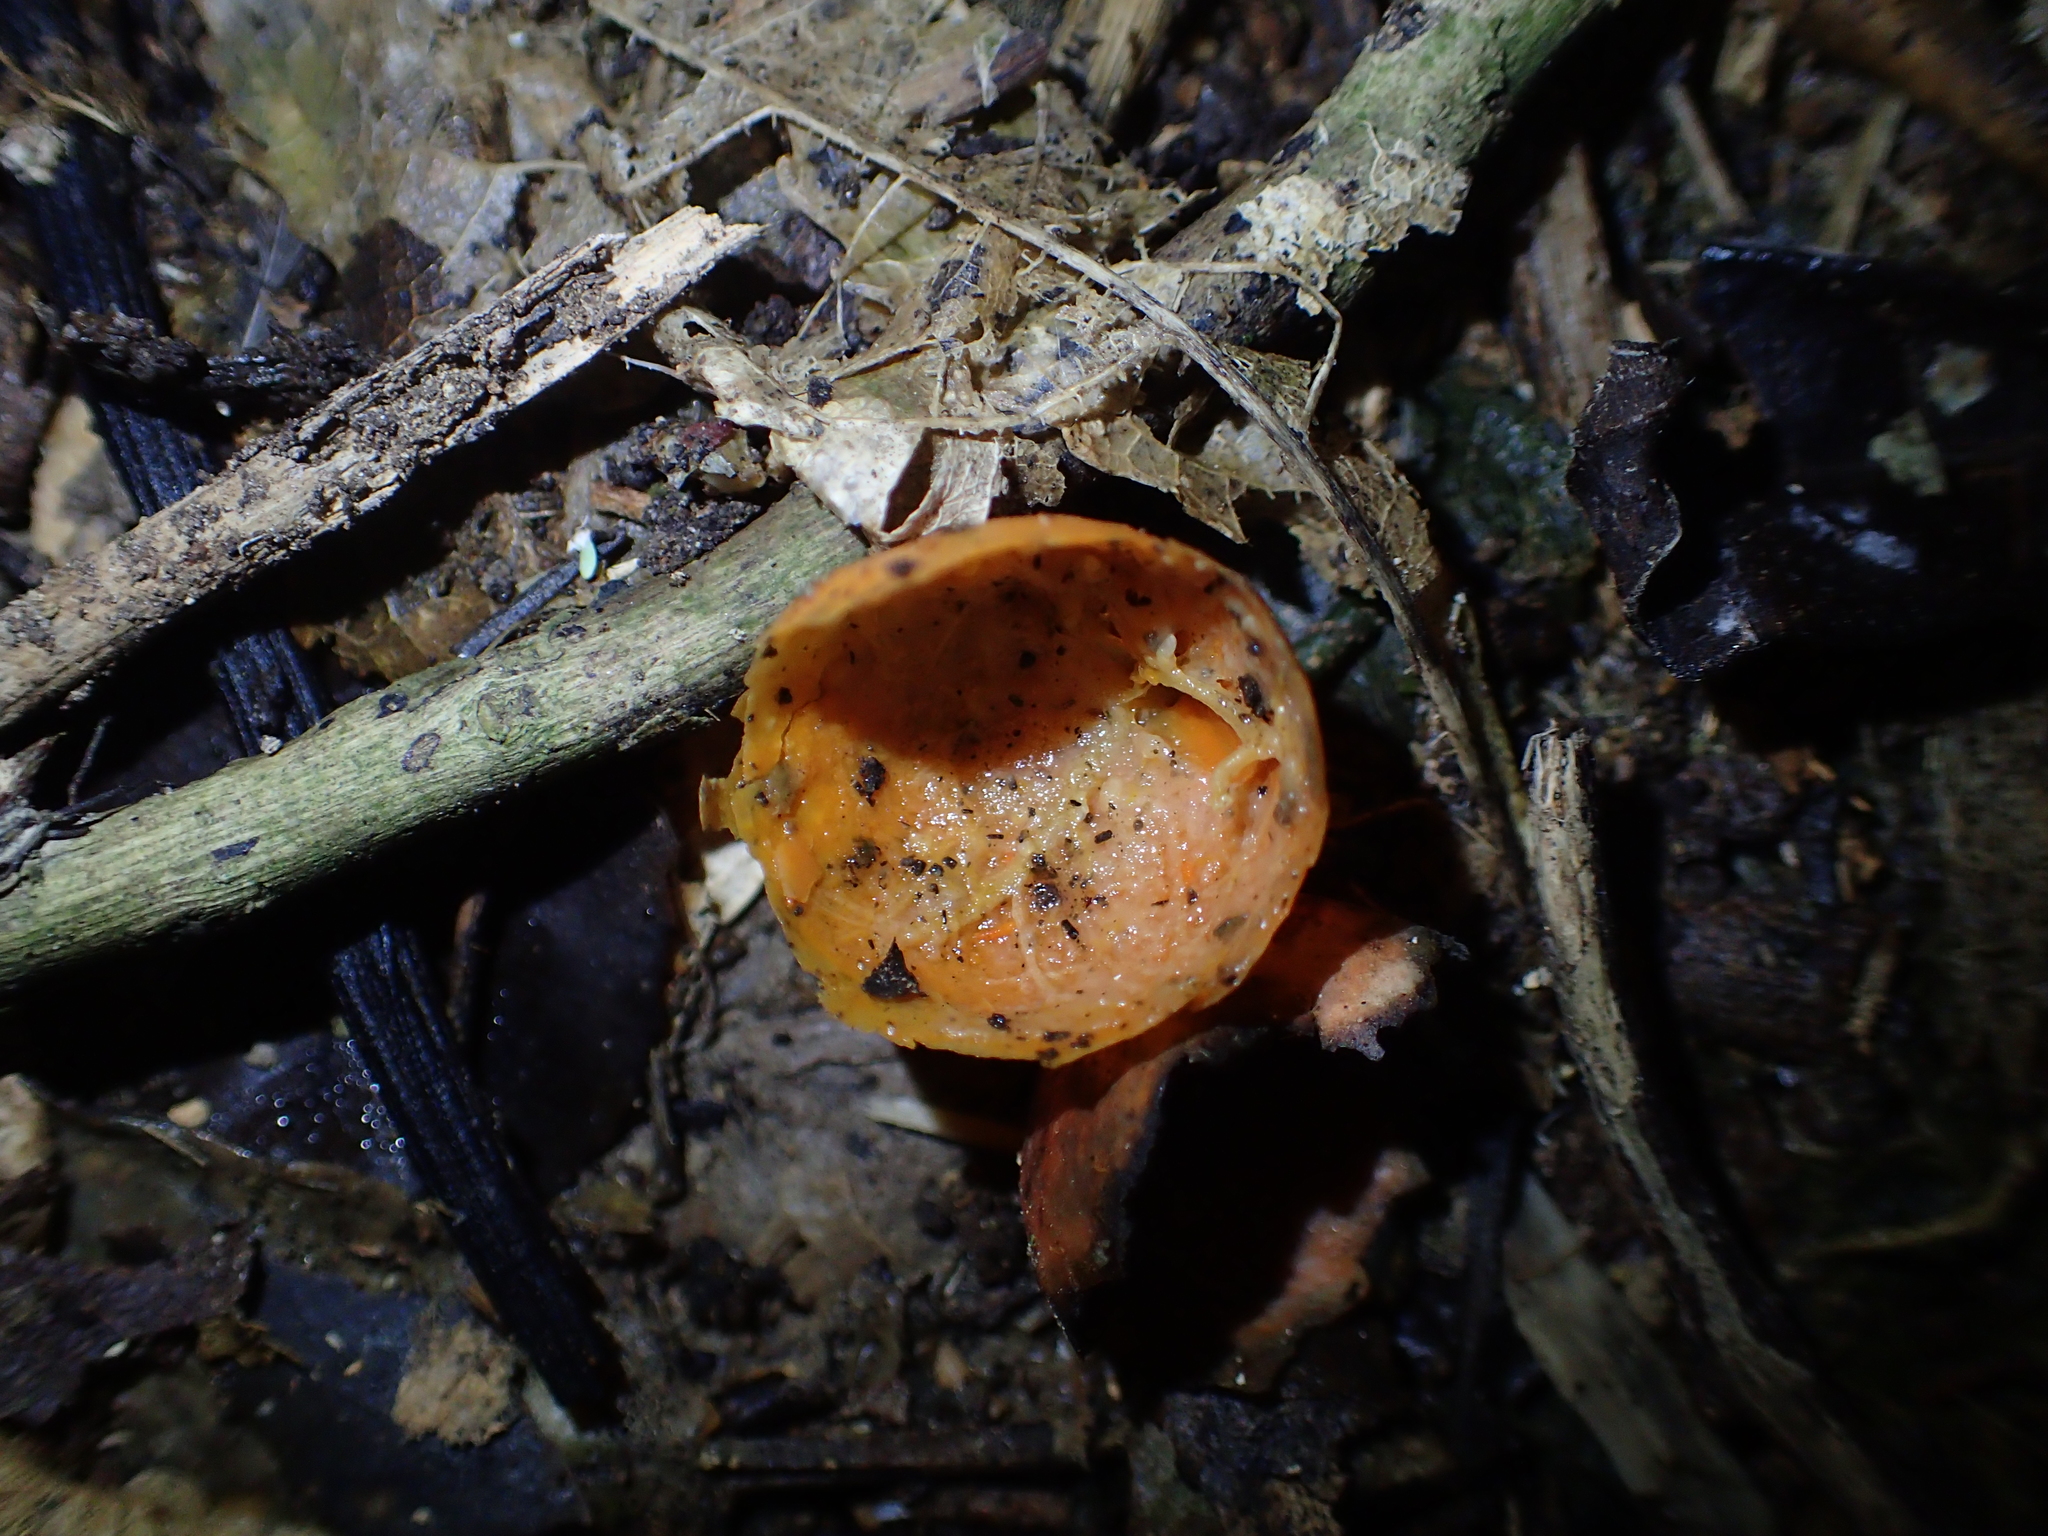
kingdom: Plantae
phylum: Tracheophyta
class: Magnoliopsida
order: Malpighiales
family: Passifloraceae
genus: Passiflora
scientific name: Passiflora tetrandra
